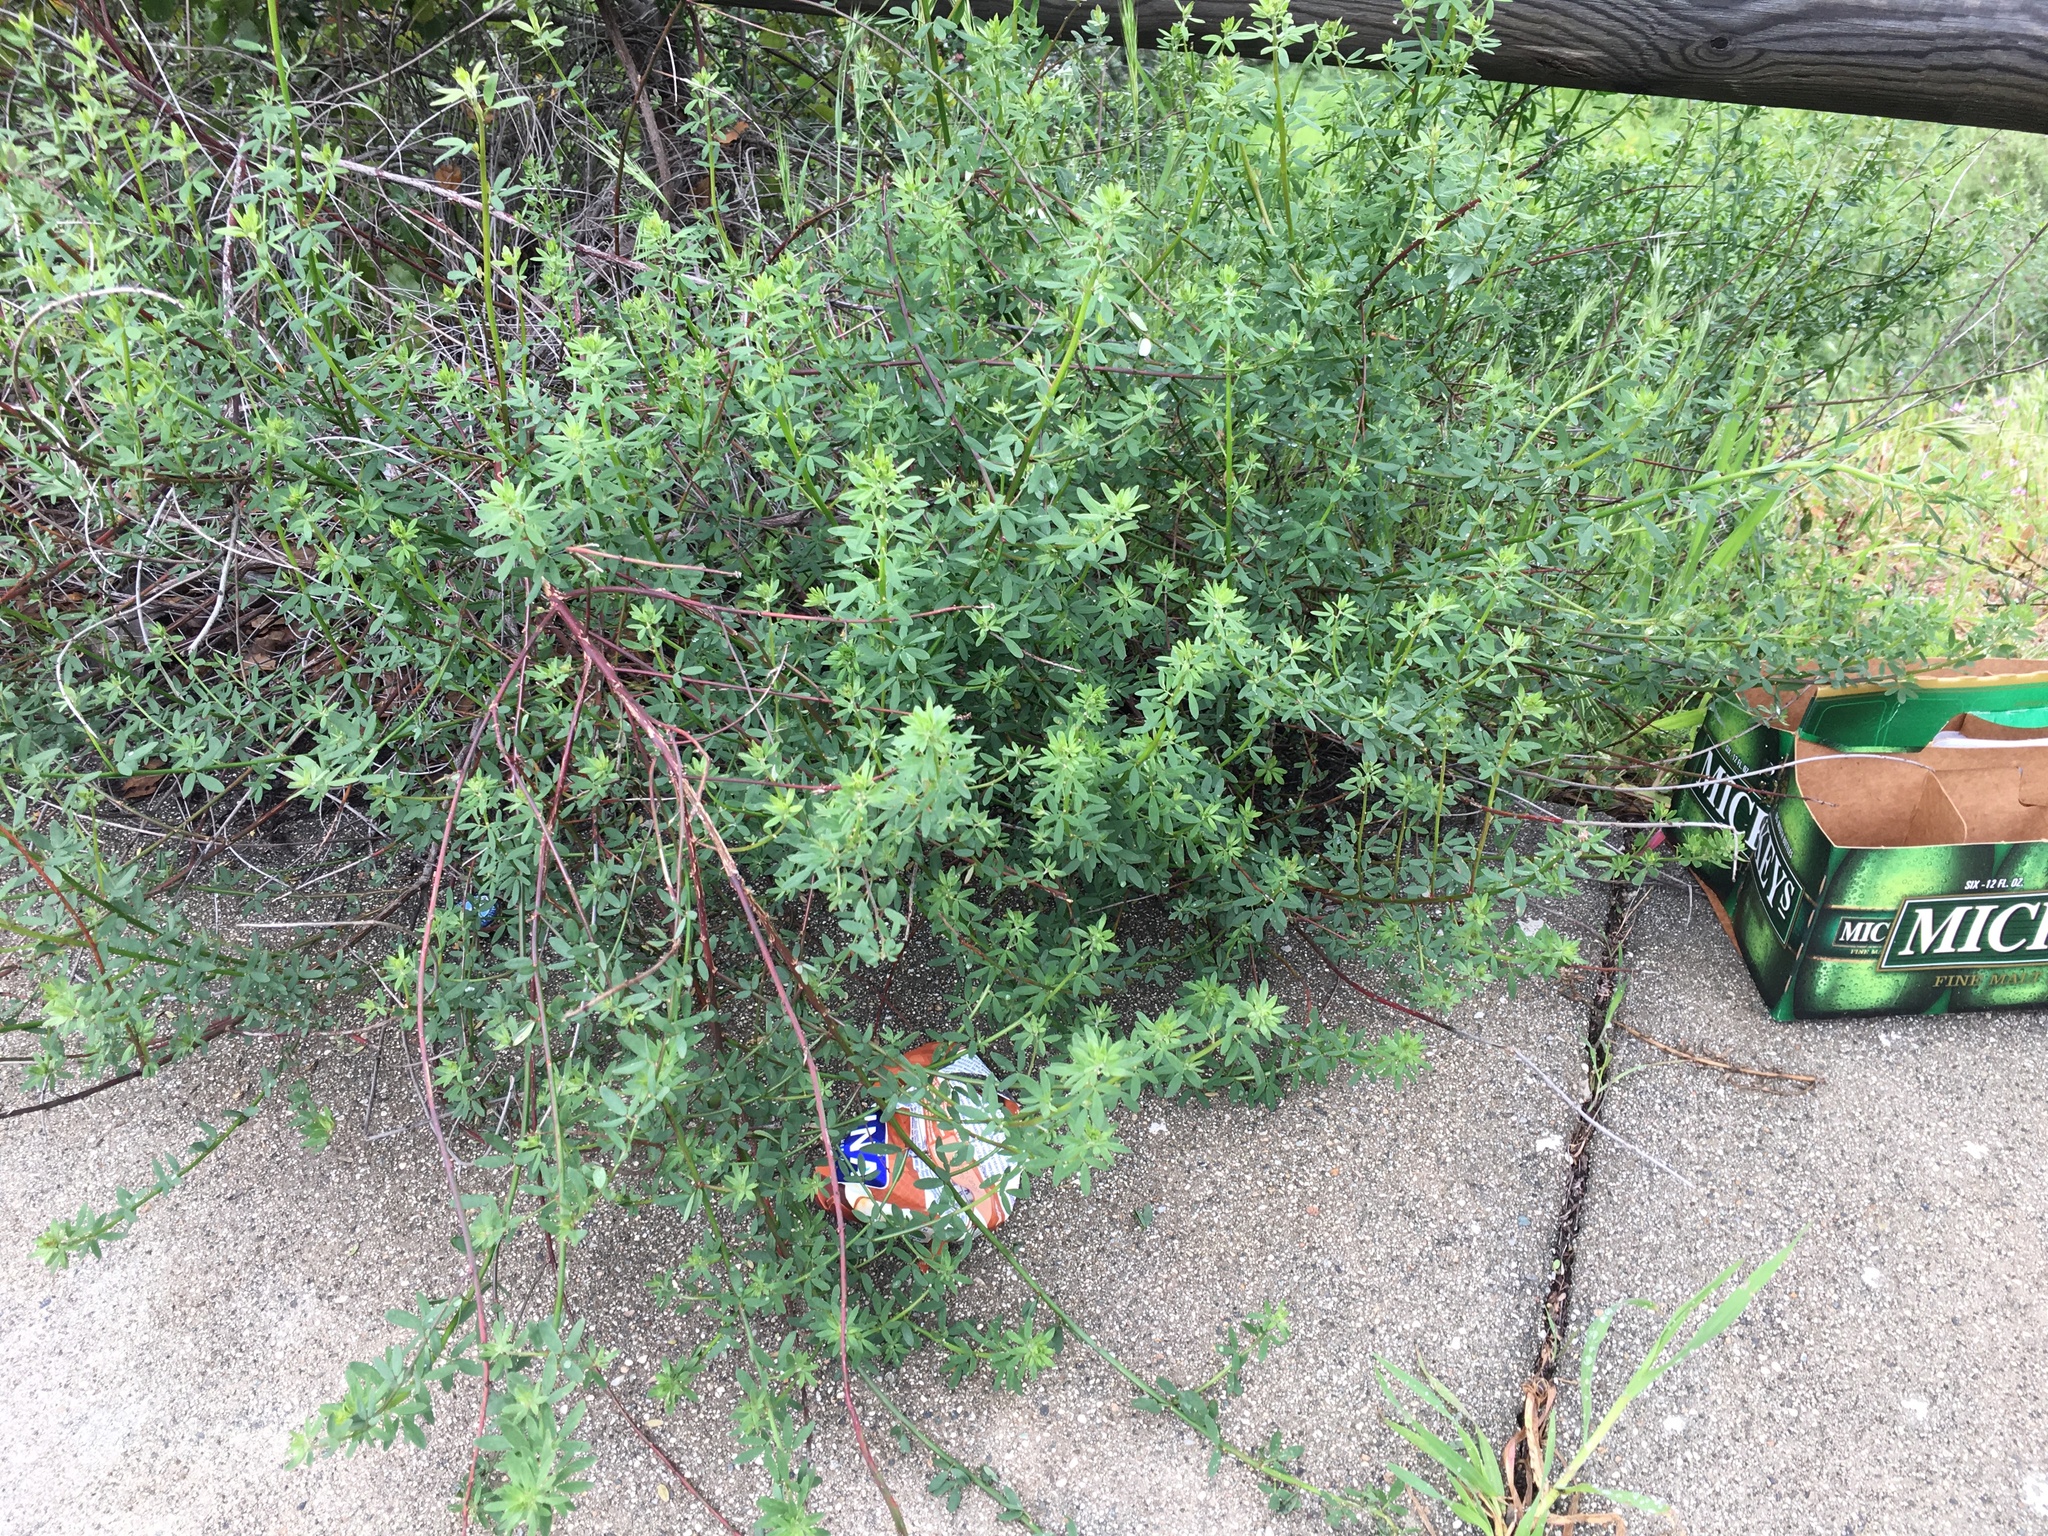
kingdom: Plantae
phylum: Tracheophyta
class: Magnoliopsida
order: Fabales
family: Fabaceae
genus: Acmispon
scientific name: Acmispon glaber
